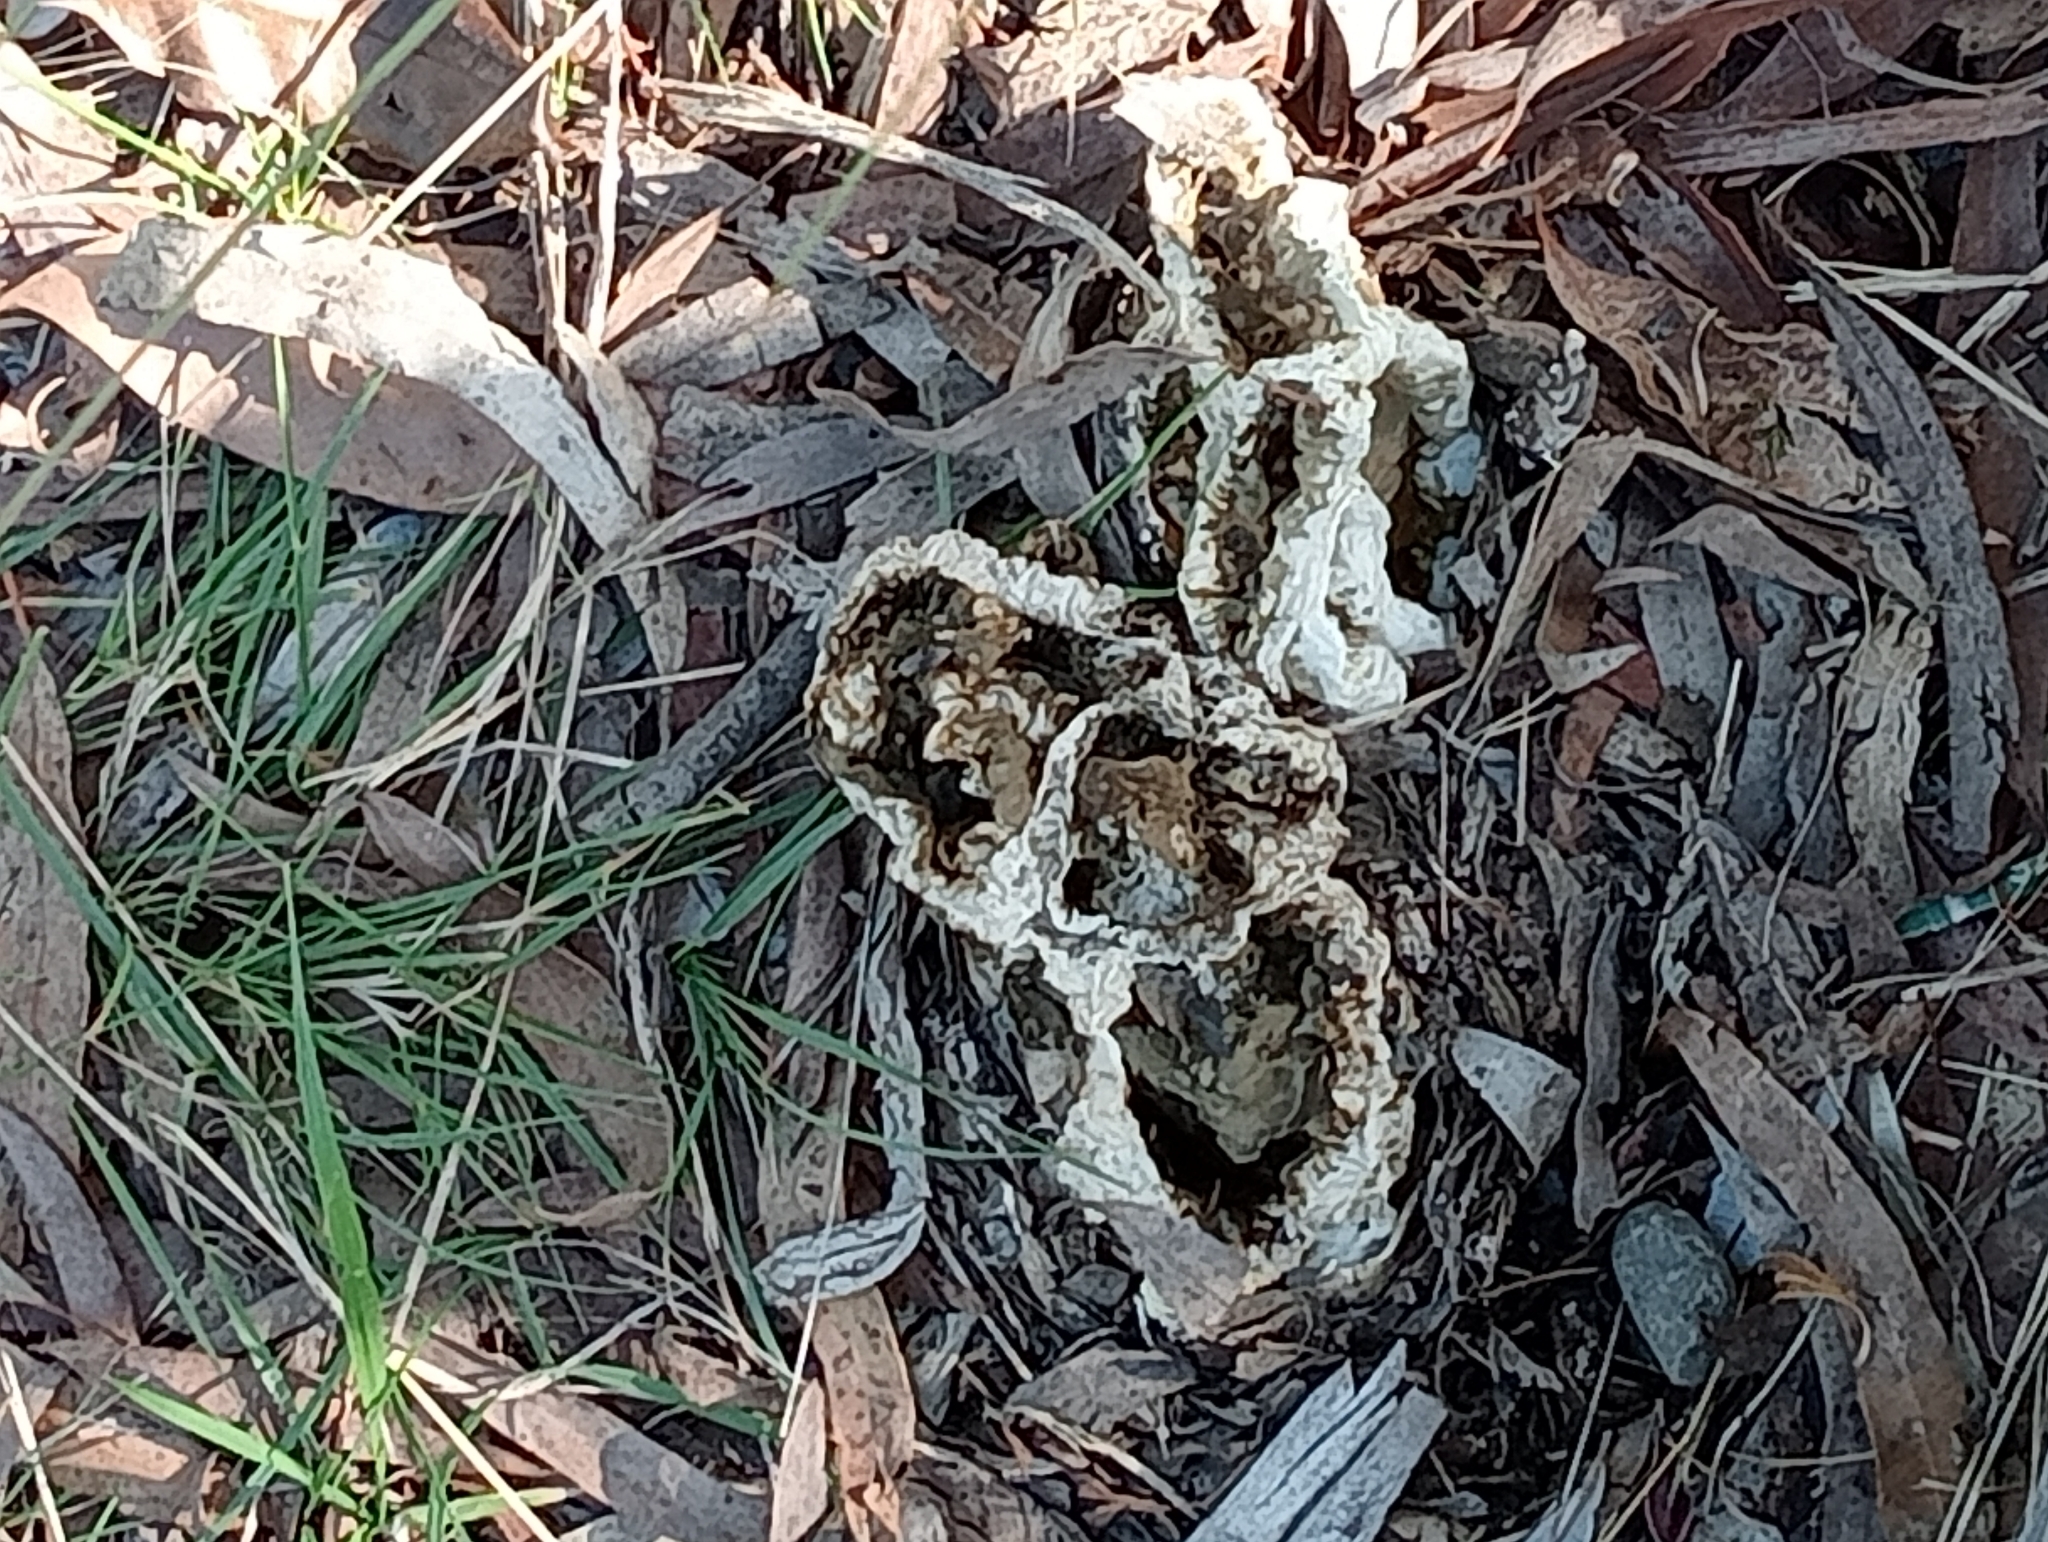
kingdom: Fungi
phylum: Basidiomycota
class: Agaricomycetes
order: Phallales
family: Phallaceae
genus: Ileodictyon
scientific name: Ileodictyon cibarium
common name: Basket fungus
